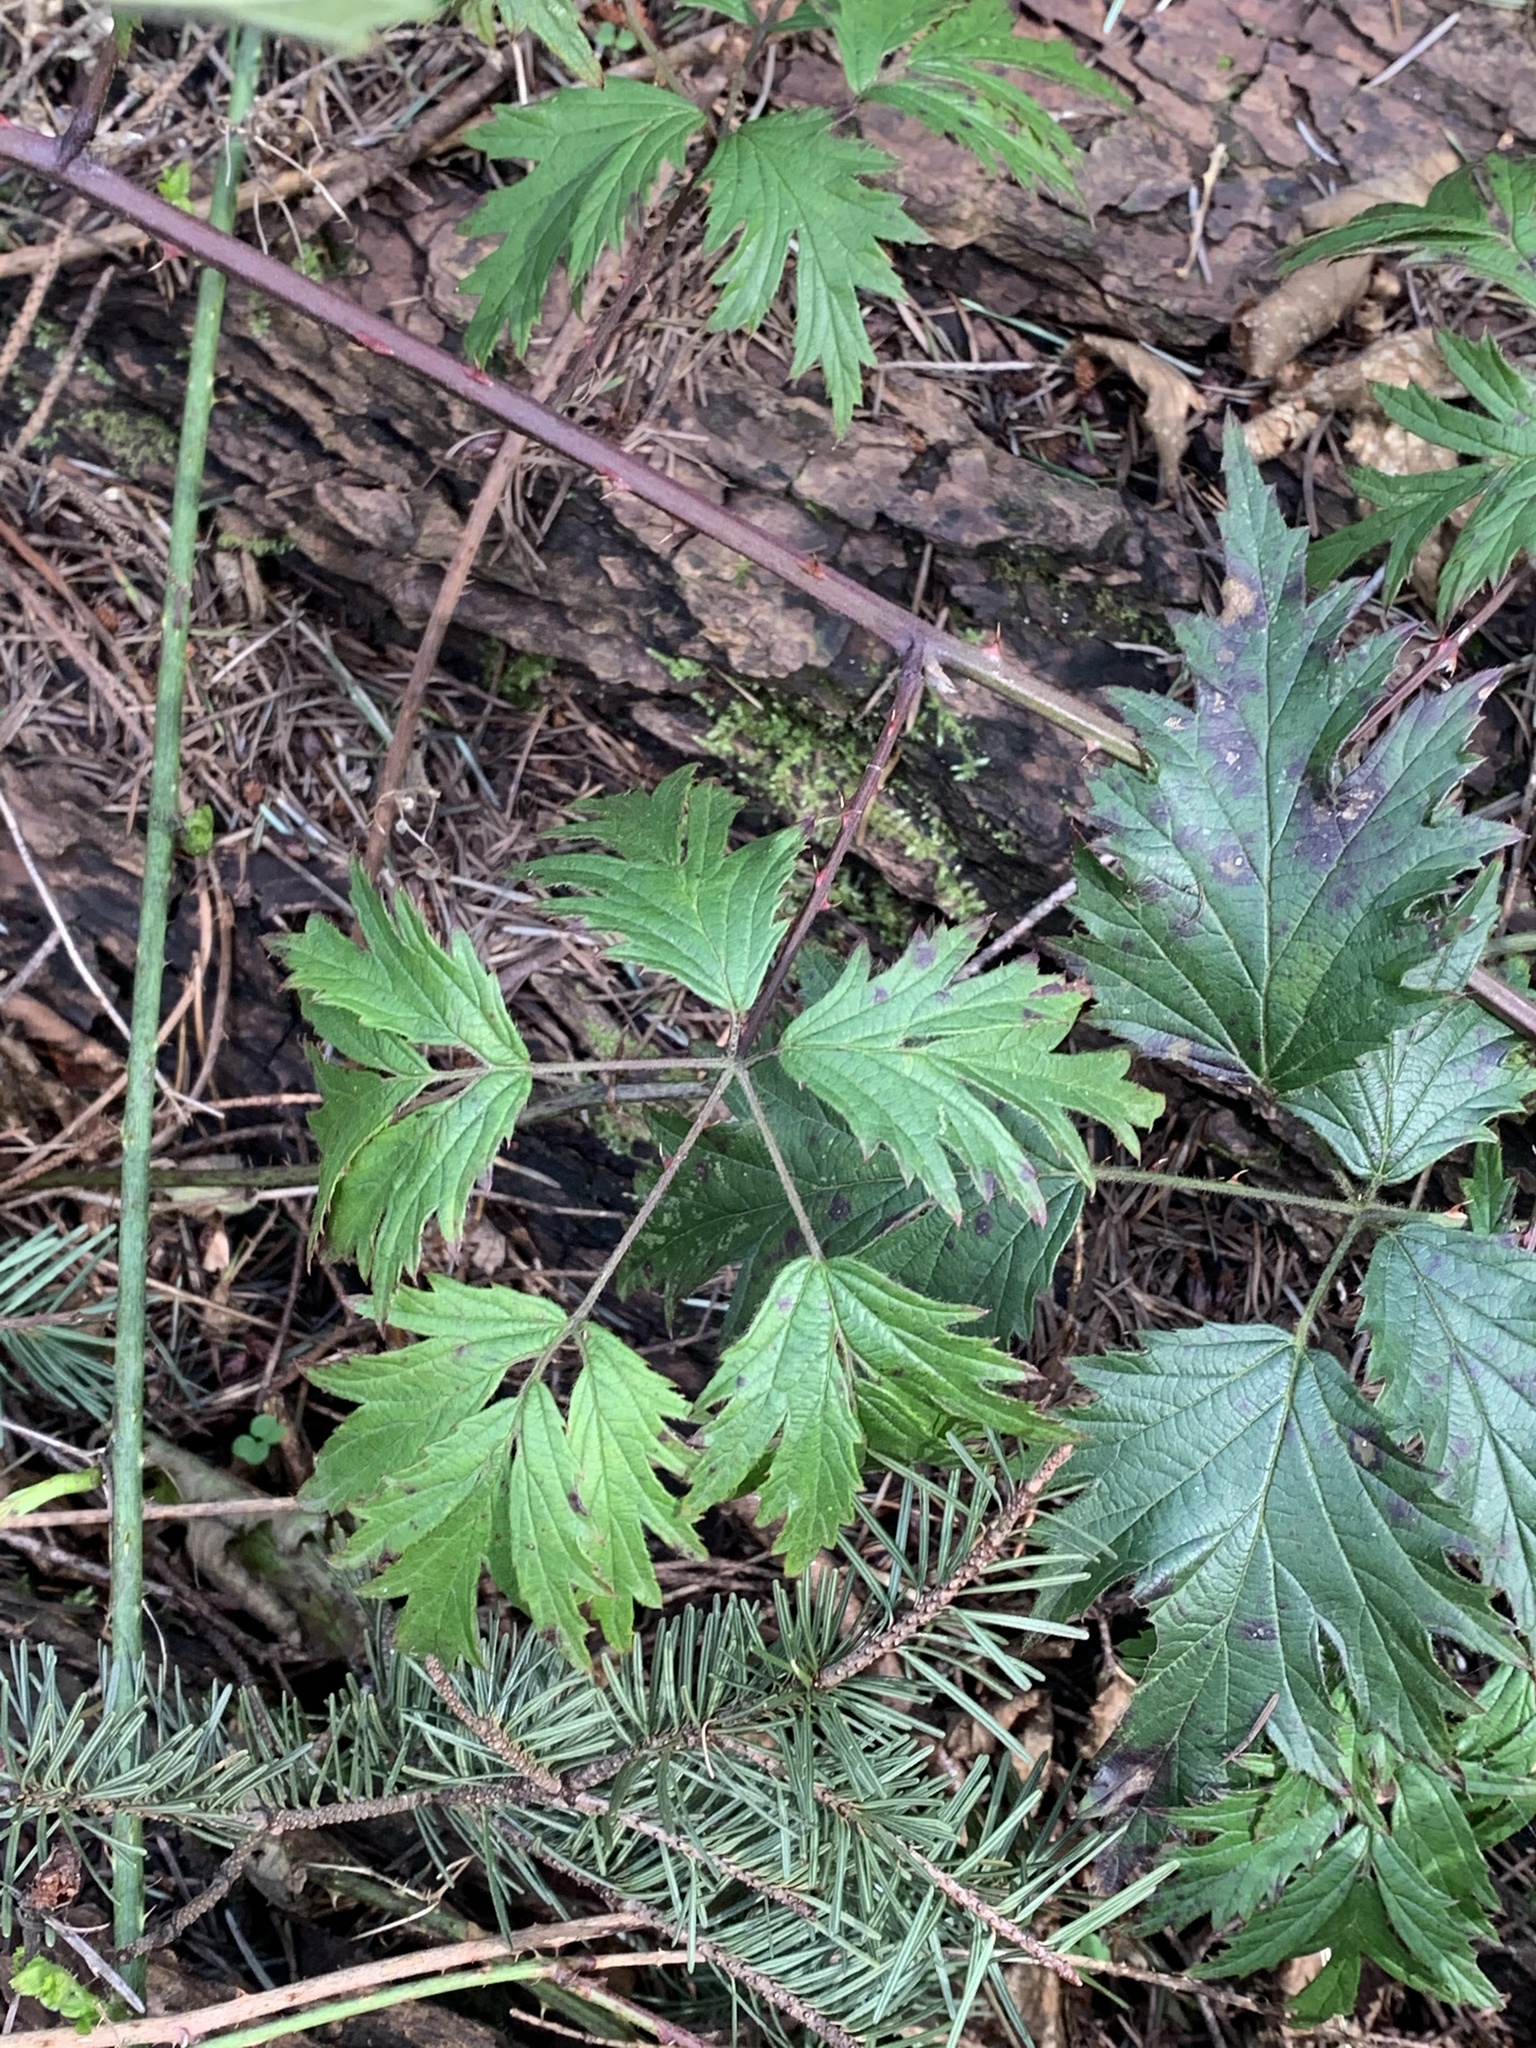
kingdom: Plantae
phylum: Tracheophyta
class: Magnoliopsida
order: Rosales
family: Rosaceae
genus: Rubus
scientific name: Rubus laciniatus
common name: Evergreen blackberry
